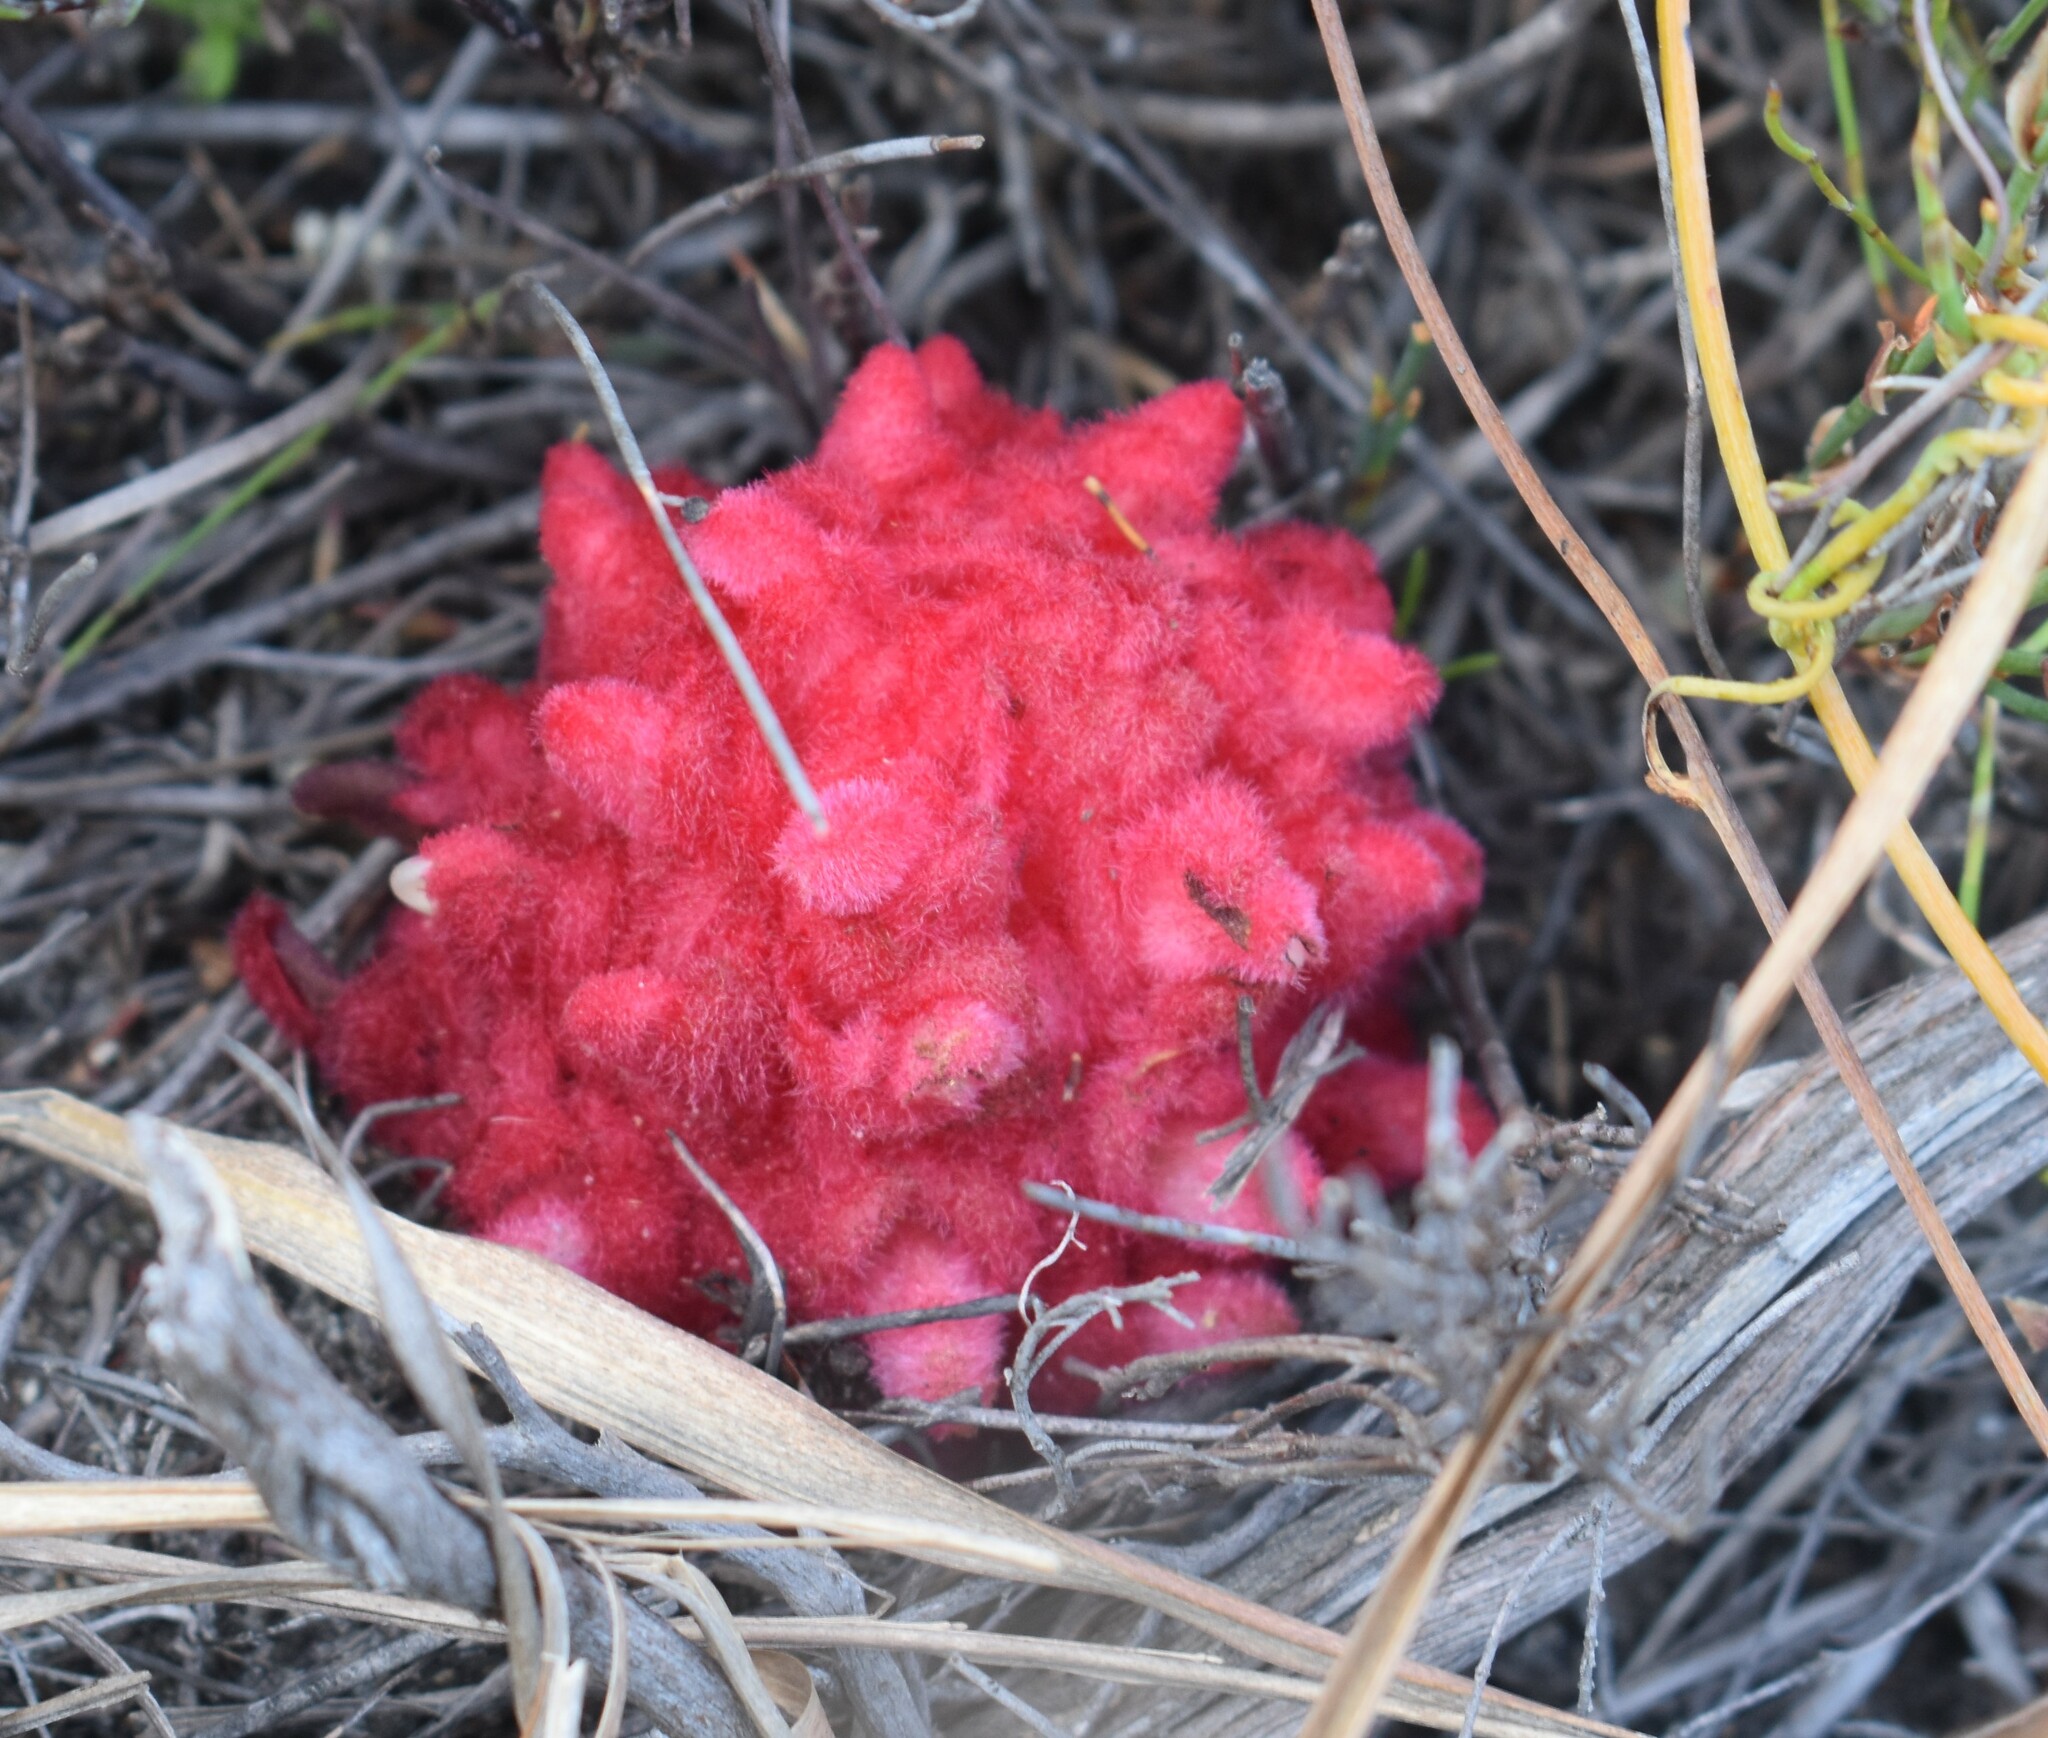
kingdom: Plantae
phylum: Tracheophyta
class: Magnoliopsida
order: Lamiales
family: Orobanchaceae
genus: Hyobanche
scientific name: Hyobanche sanguinea
